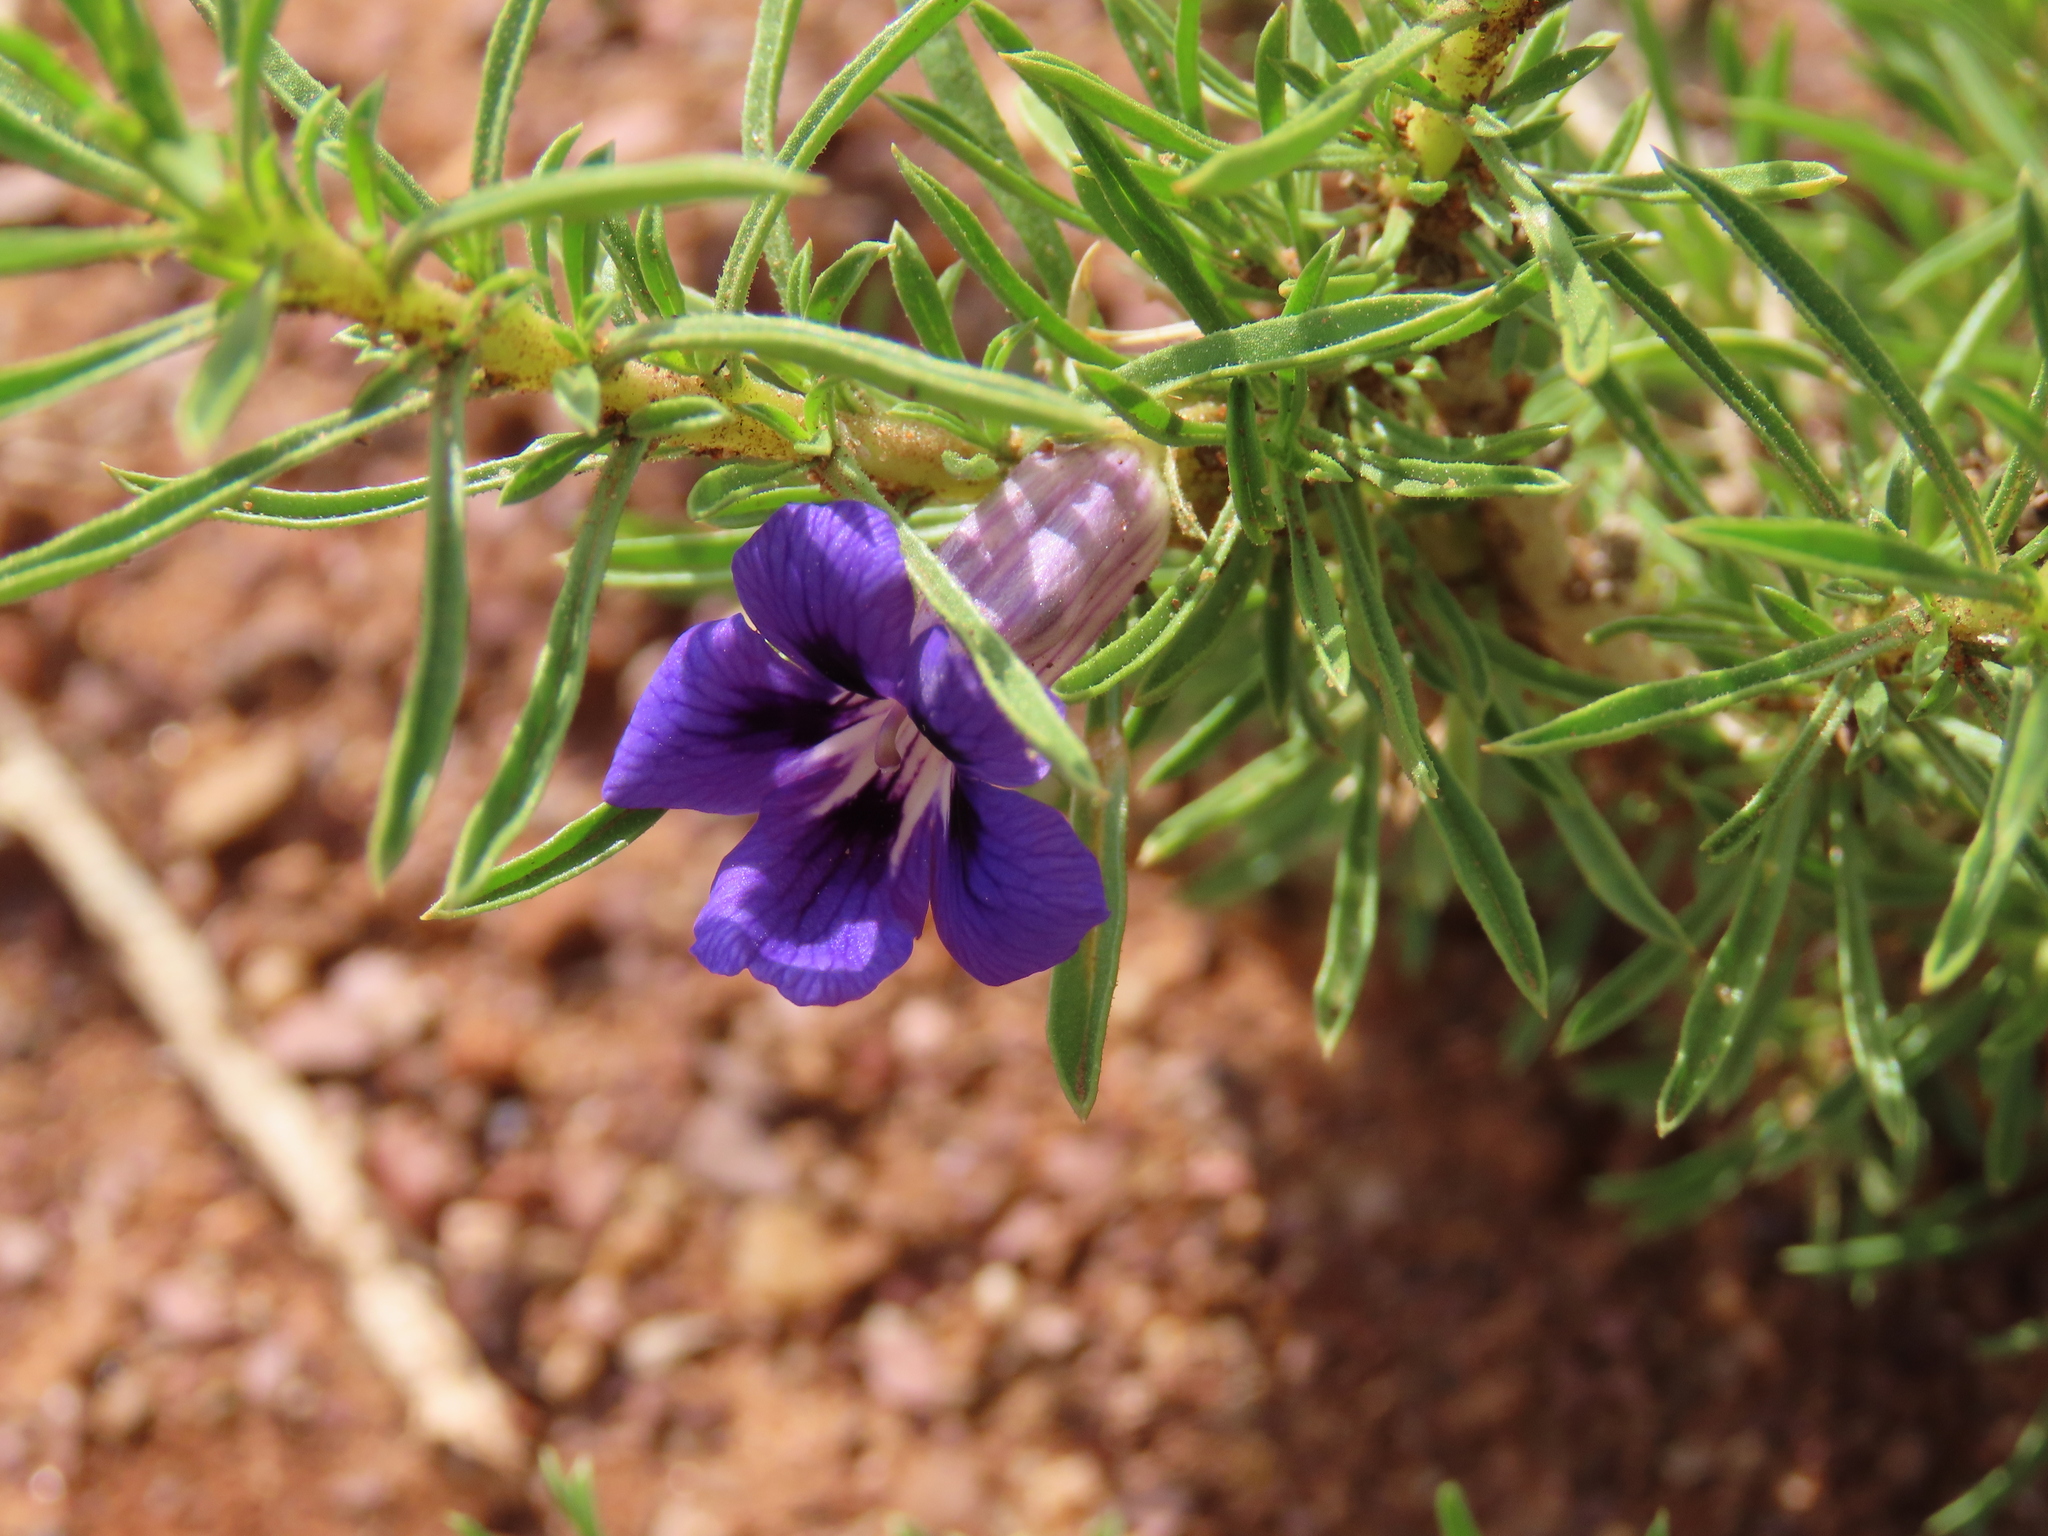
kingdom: Plantae
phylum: Tracheophyta
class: Magnoliopsida
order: Lamiales
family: Scrophulariaceae
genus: Aptosimum
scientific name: Aptosimum spinescens
